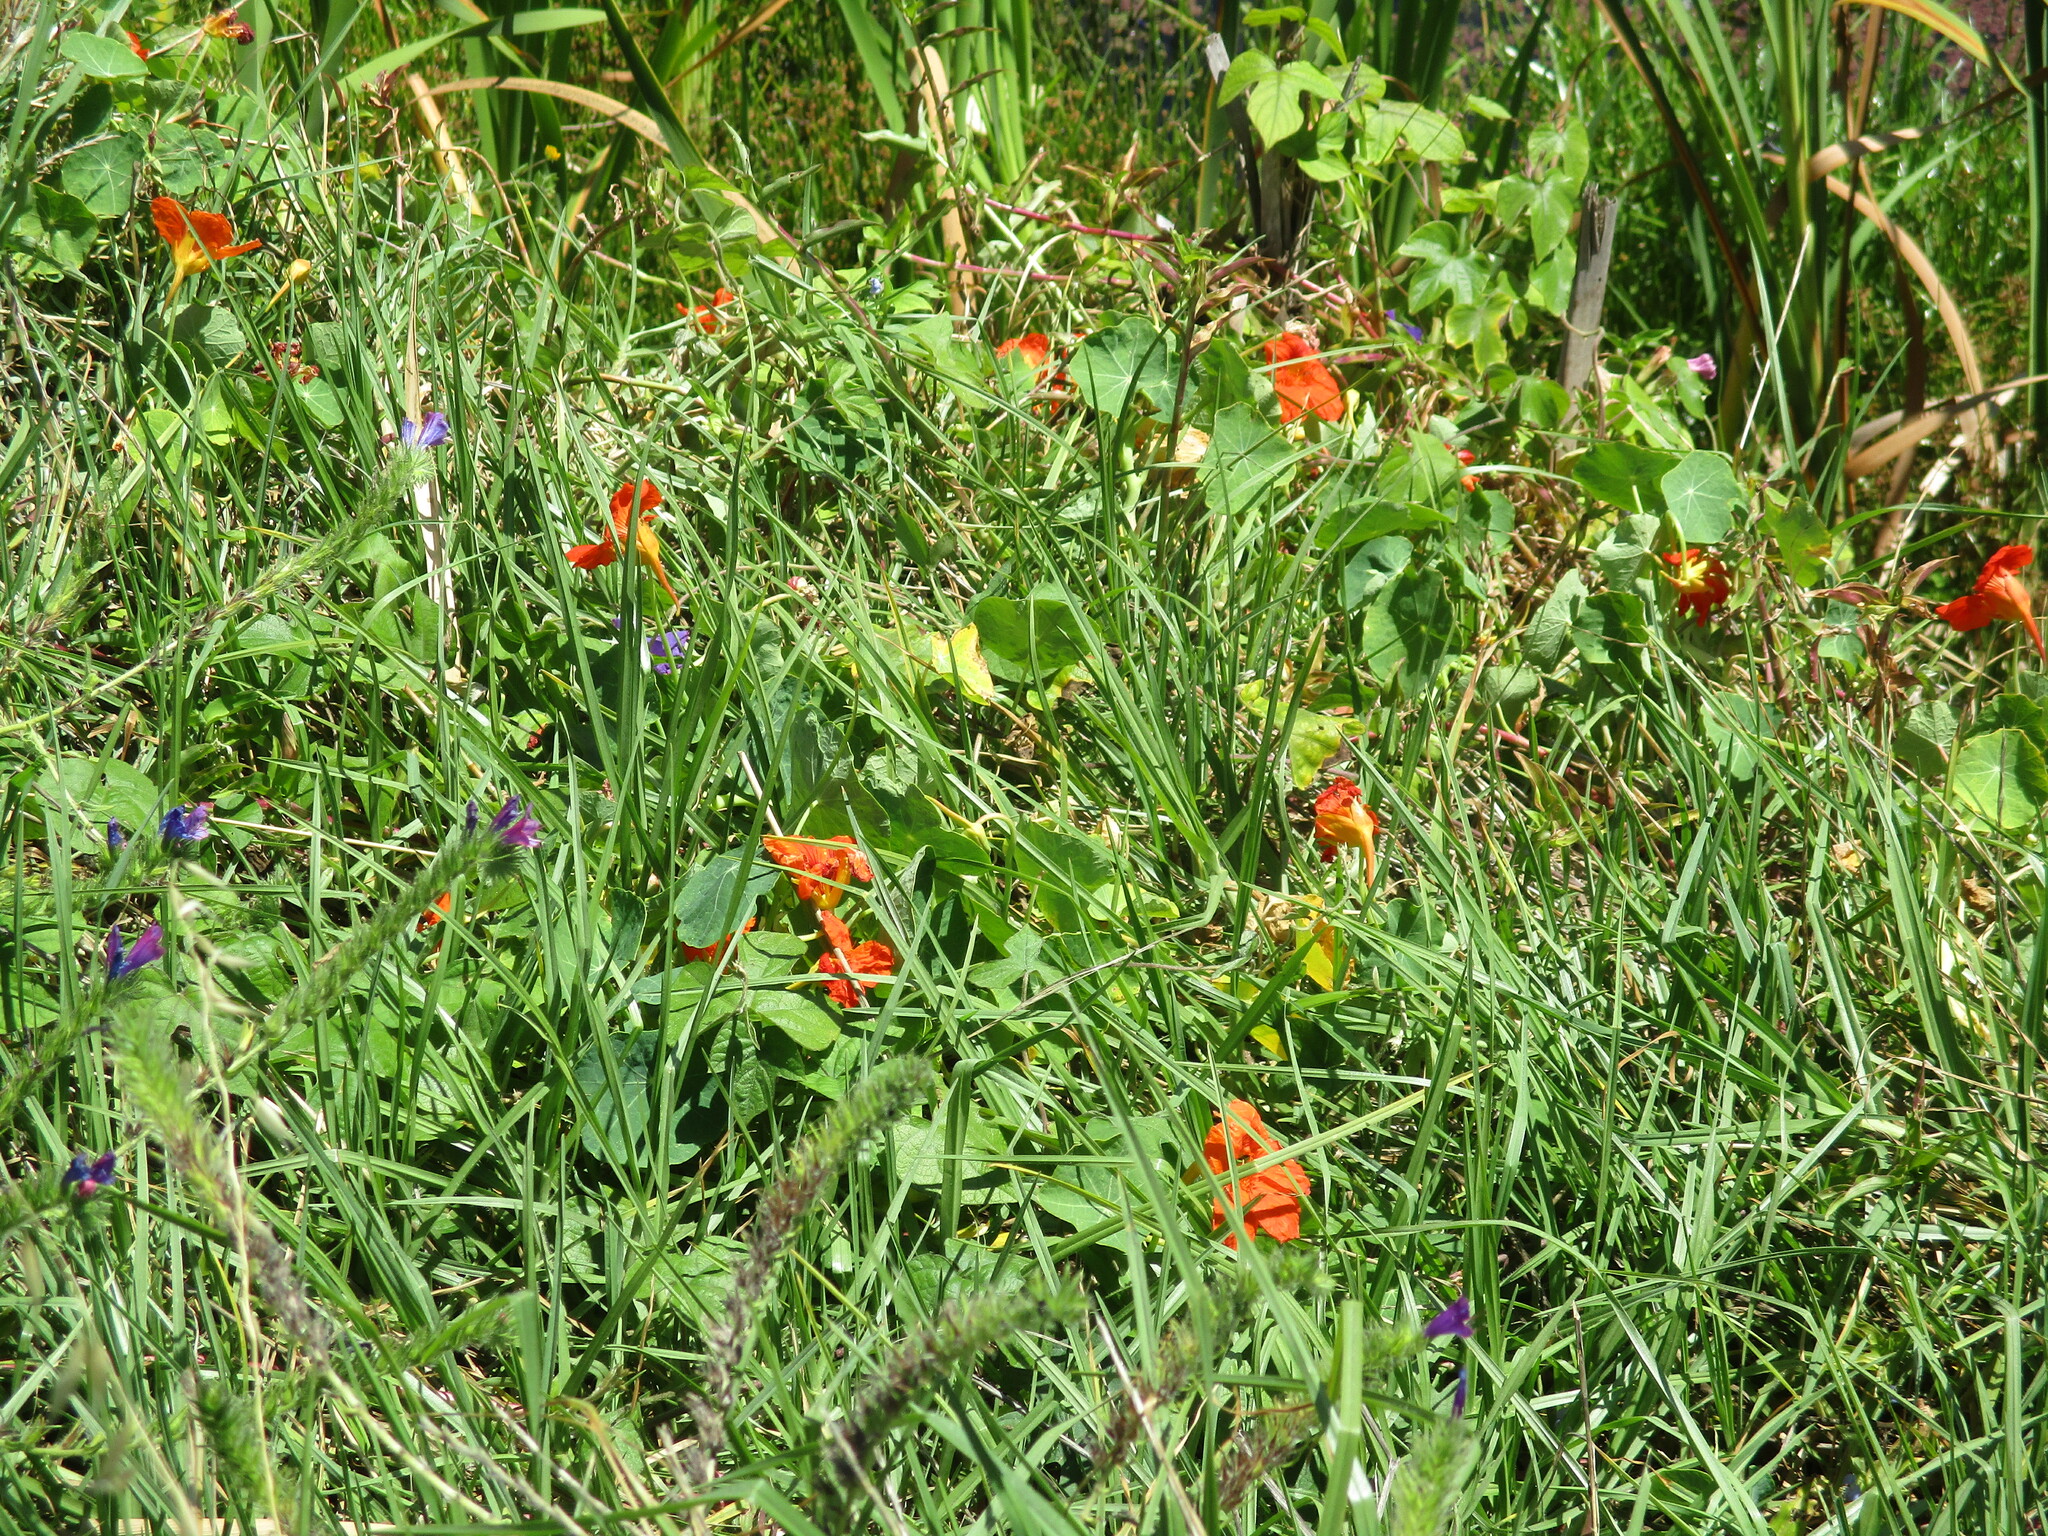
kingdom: Plantae
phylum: Tracheophyta
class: Magnoliopsida
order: Brassicales
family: Tropaeolaceae
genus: Tropaeolum
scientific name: Tropaeolum majus
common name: Nasturtium
